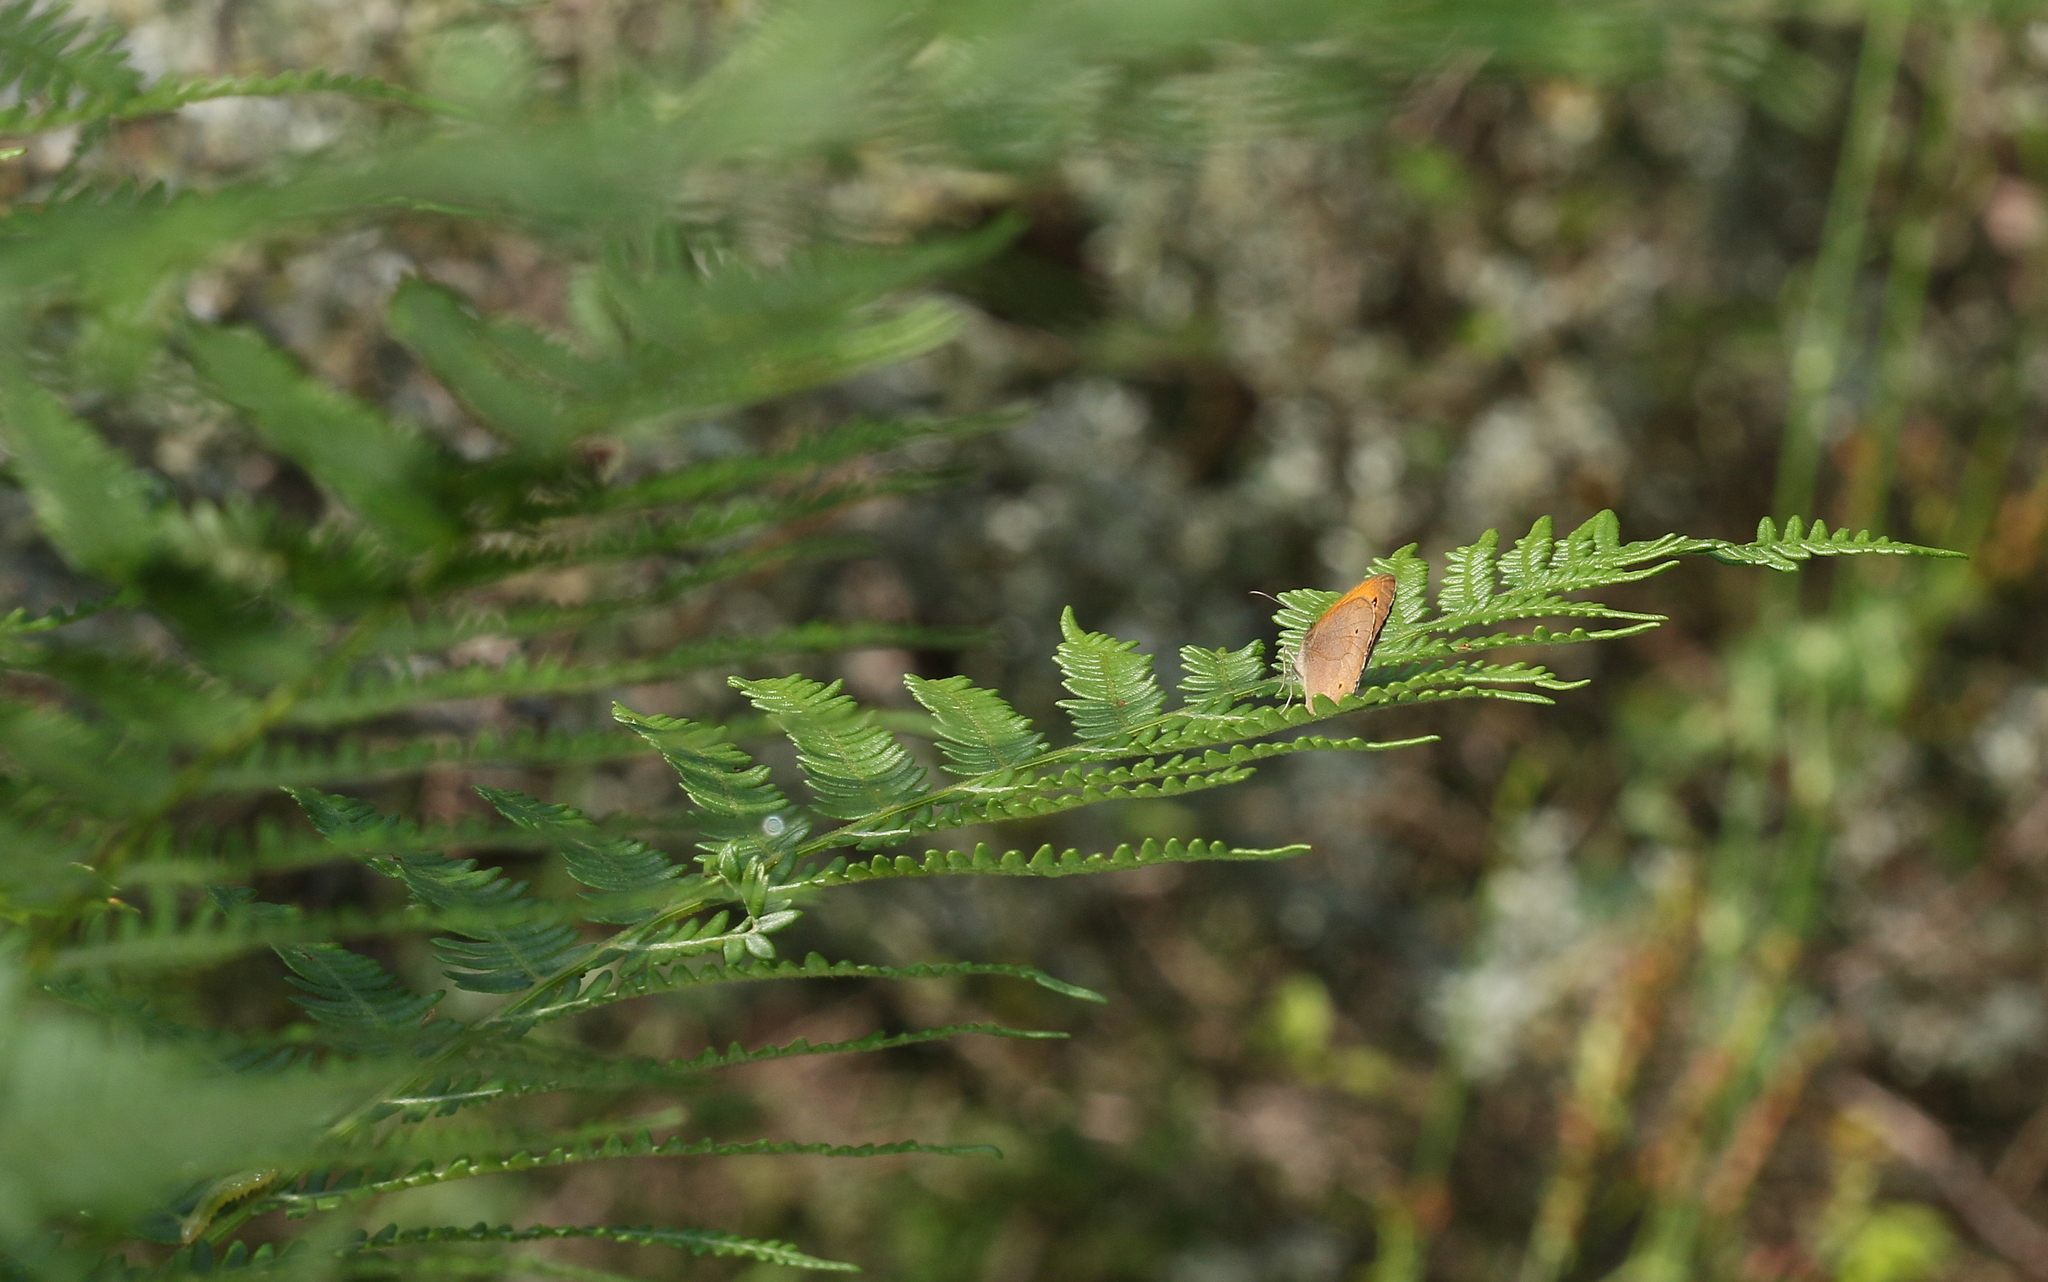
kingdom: Animalia
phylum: Arthropoda
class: Insecta
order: Lepidoptera
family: Nymphalidae
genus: Maniola
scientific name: Maniola jurtina
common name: Meadow brown
